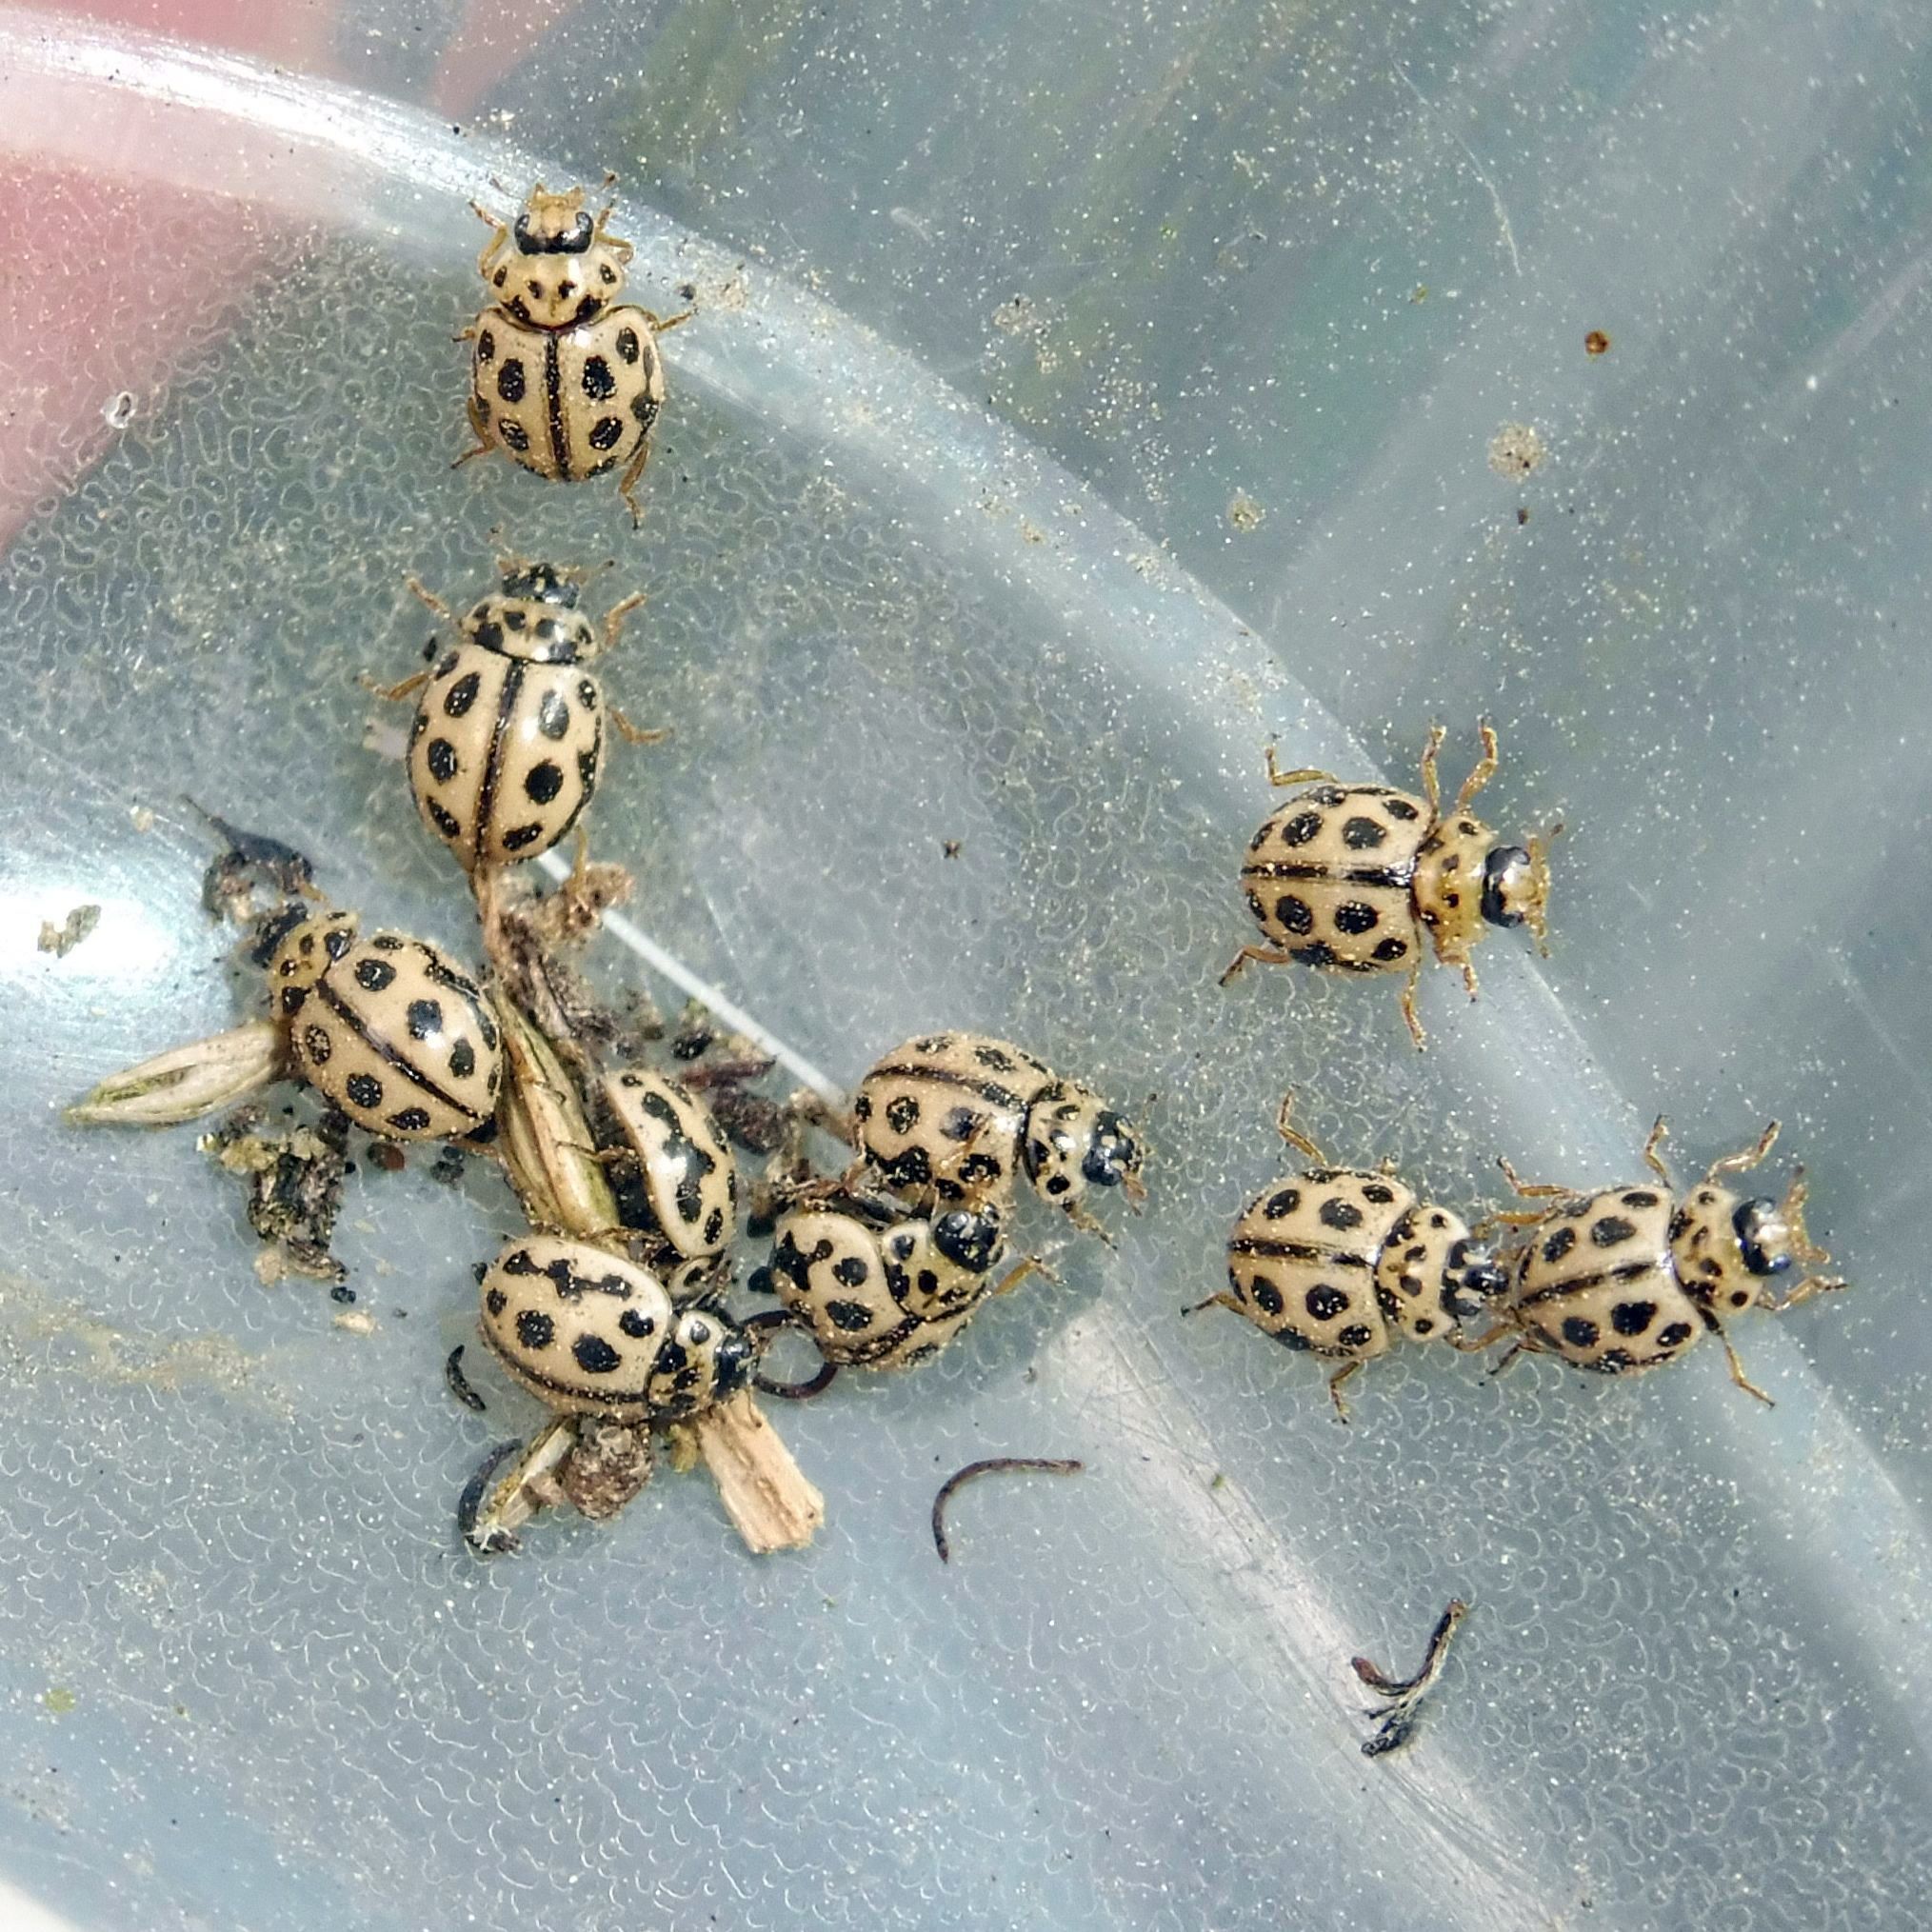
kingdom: Animalia
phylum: Arthropoda
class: Insecta
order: Coleoptera
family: Coccinellidae
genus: Tytthaspis
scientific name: Tytthaspis sedecimpunctata
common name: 16-spot ladybird
